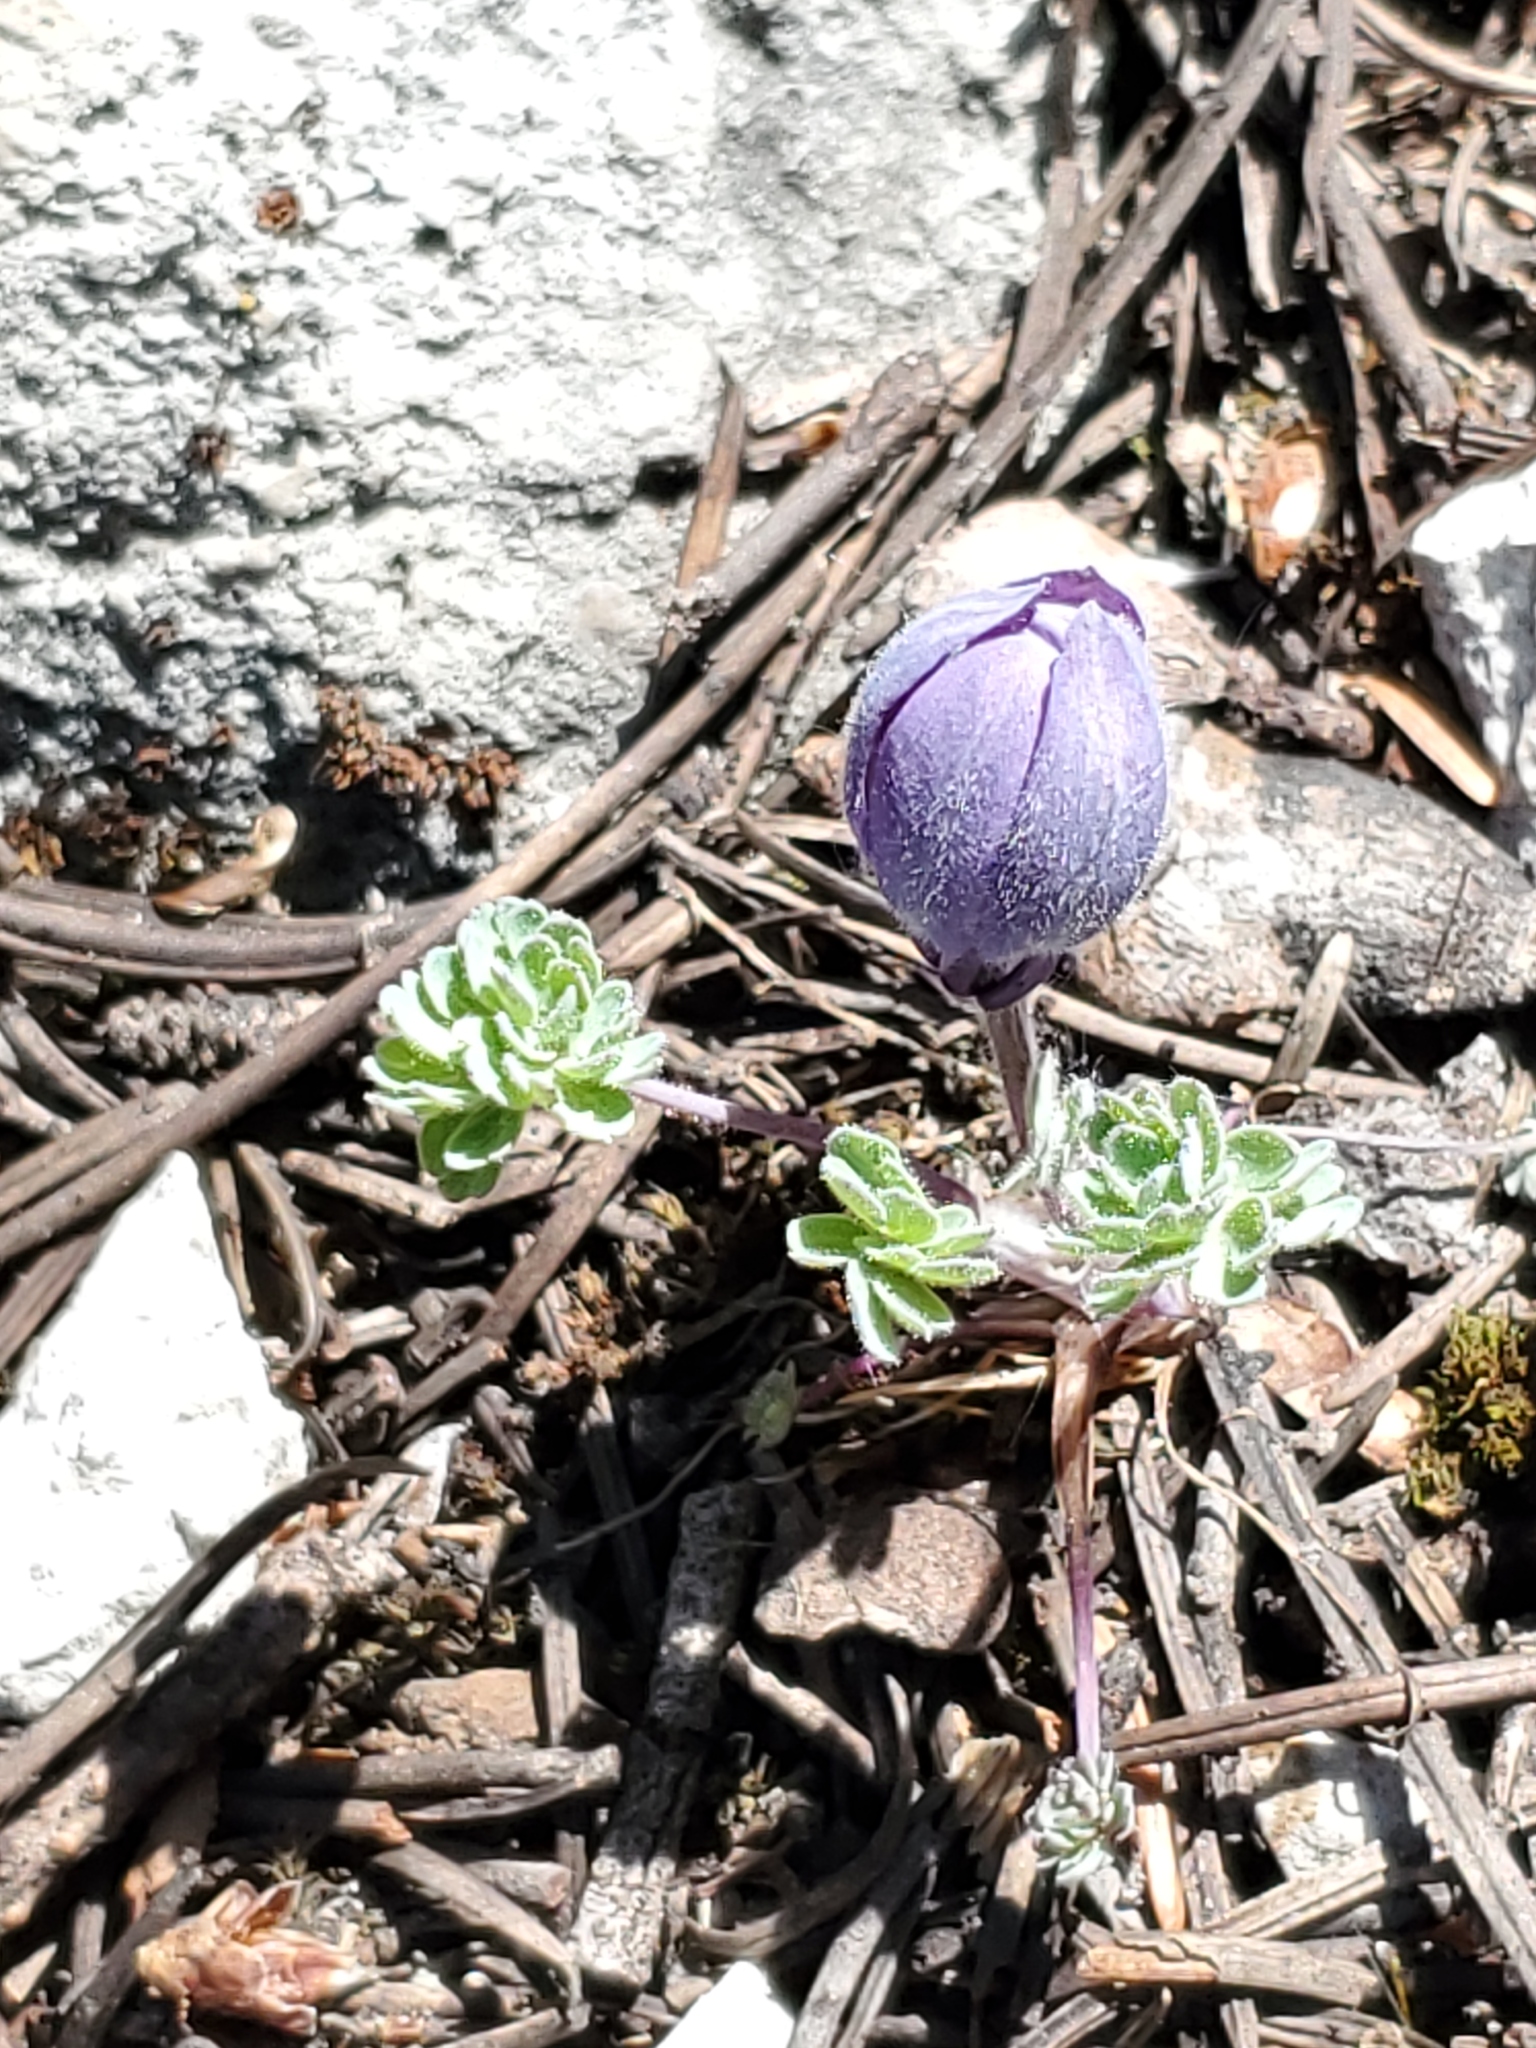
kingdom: Plantae
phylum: Tracheophyta
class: Magnoliopsida
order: Ranunculales
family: Ranunculaceae
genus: Aquilegia
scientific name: Aquilegia jonesii
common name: Jones' columbine
